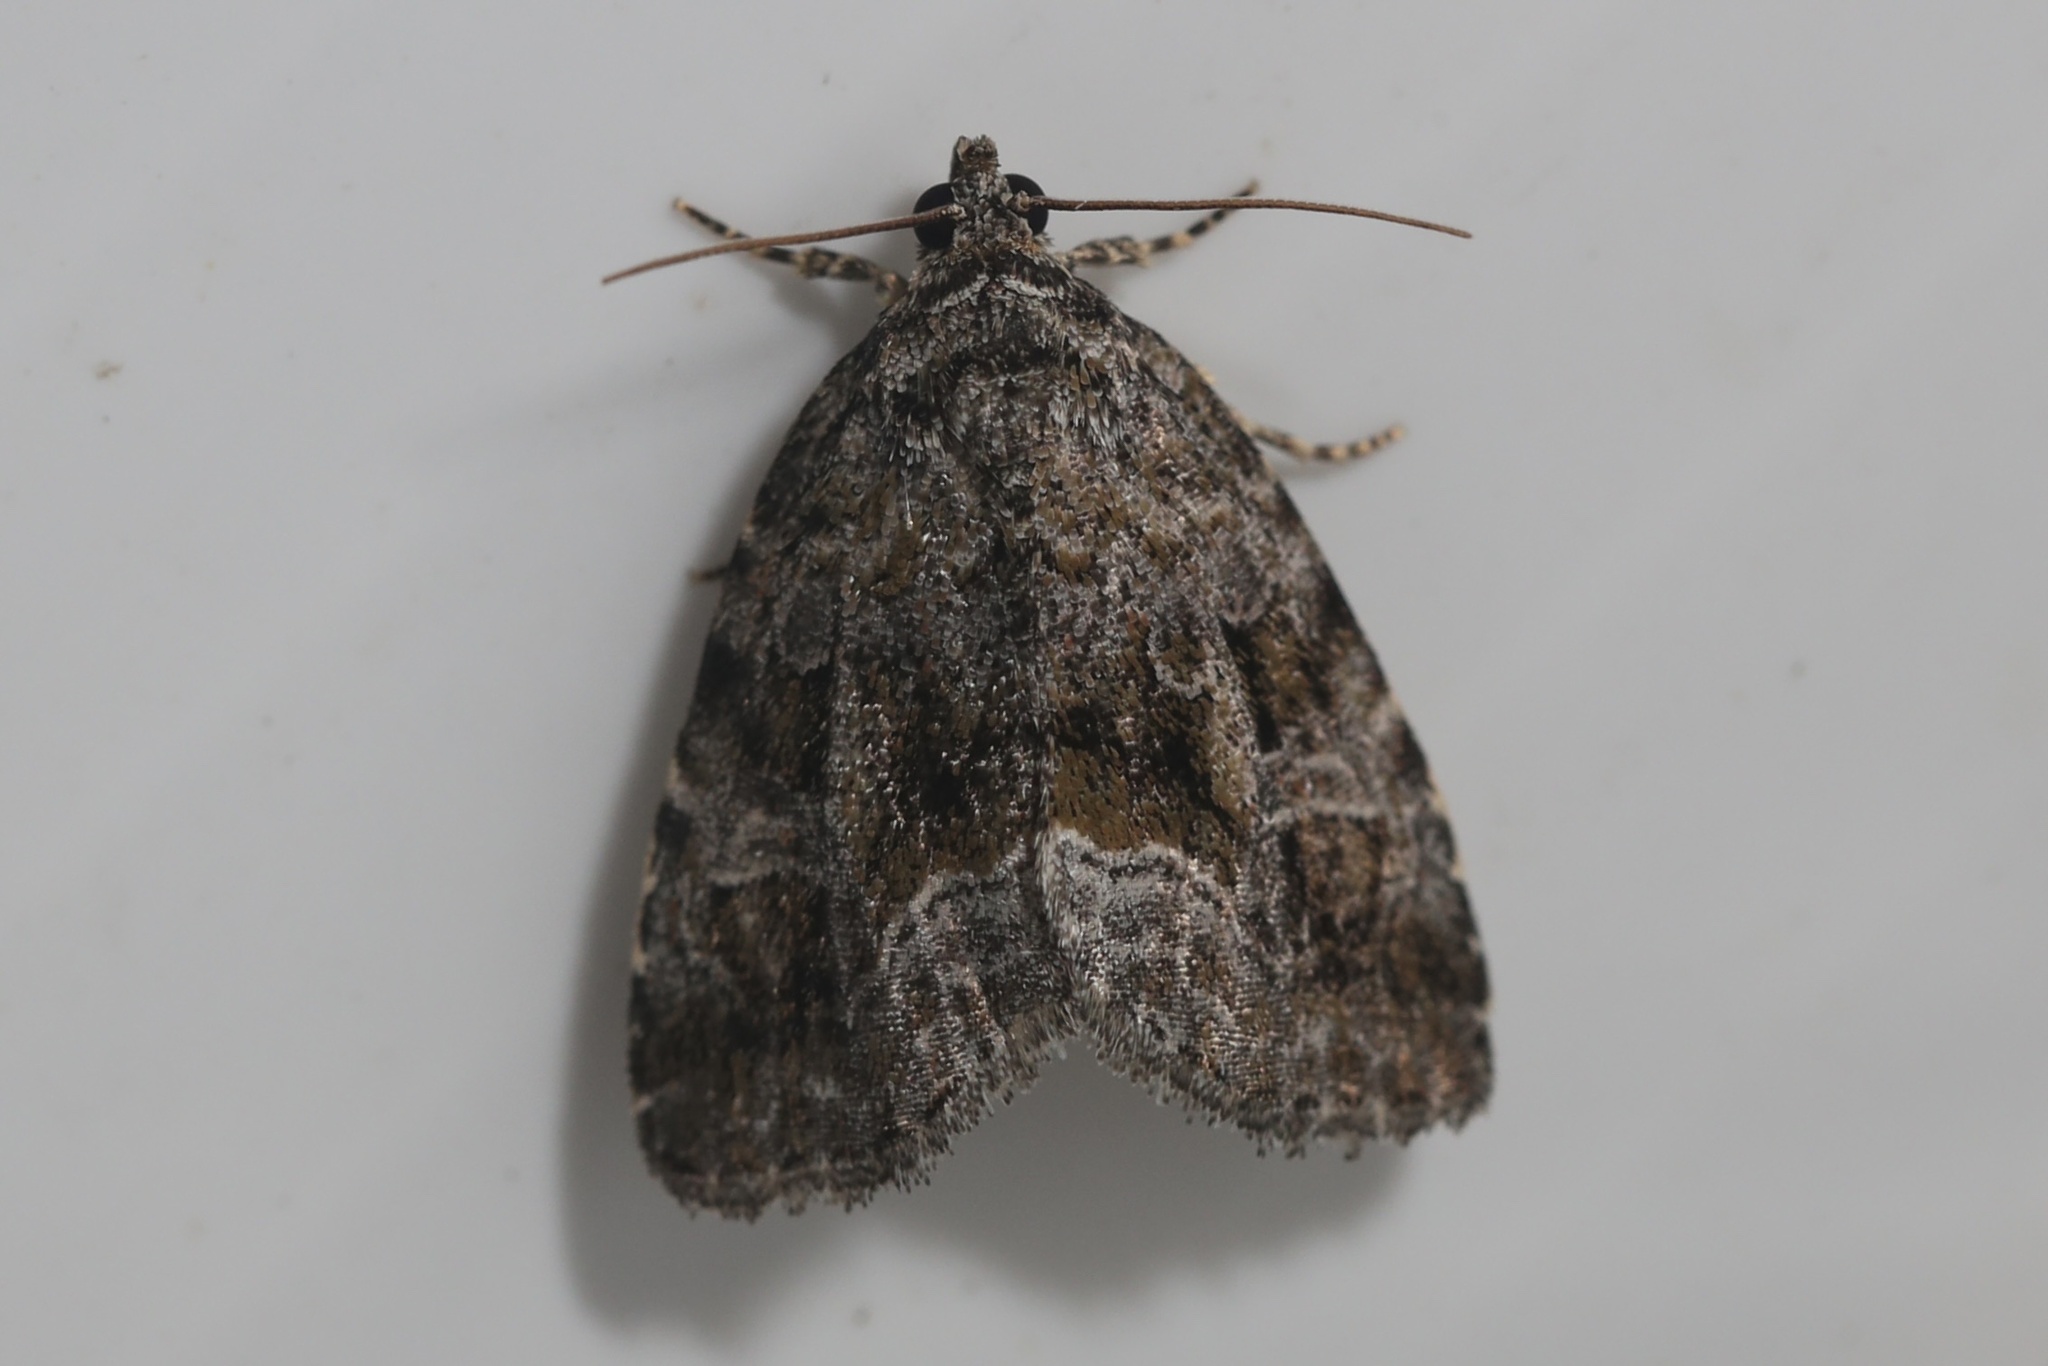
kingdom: Animalia
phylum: Arthropoda
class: Insecta
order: Lepidoptera
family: Noctuidae
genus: Protodeltote
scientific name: Protodeltote muscosula
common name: Large mossy glyph
